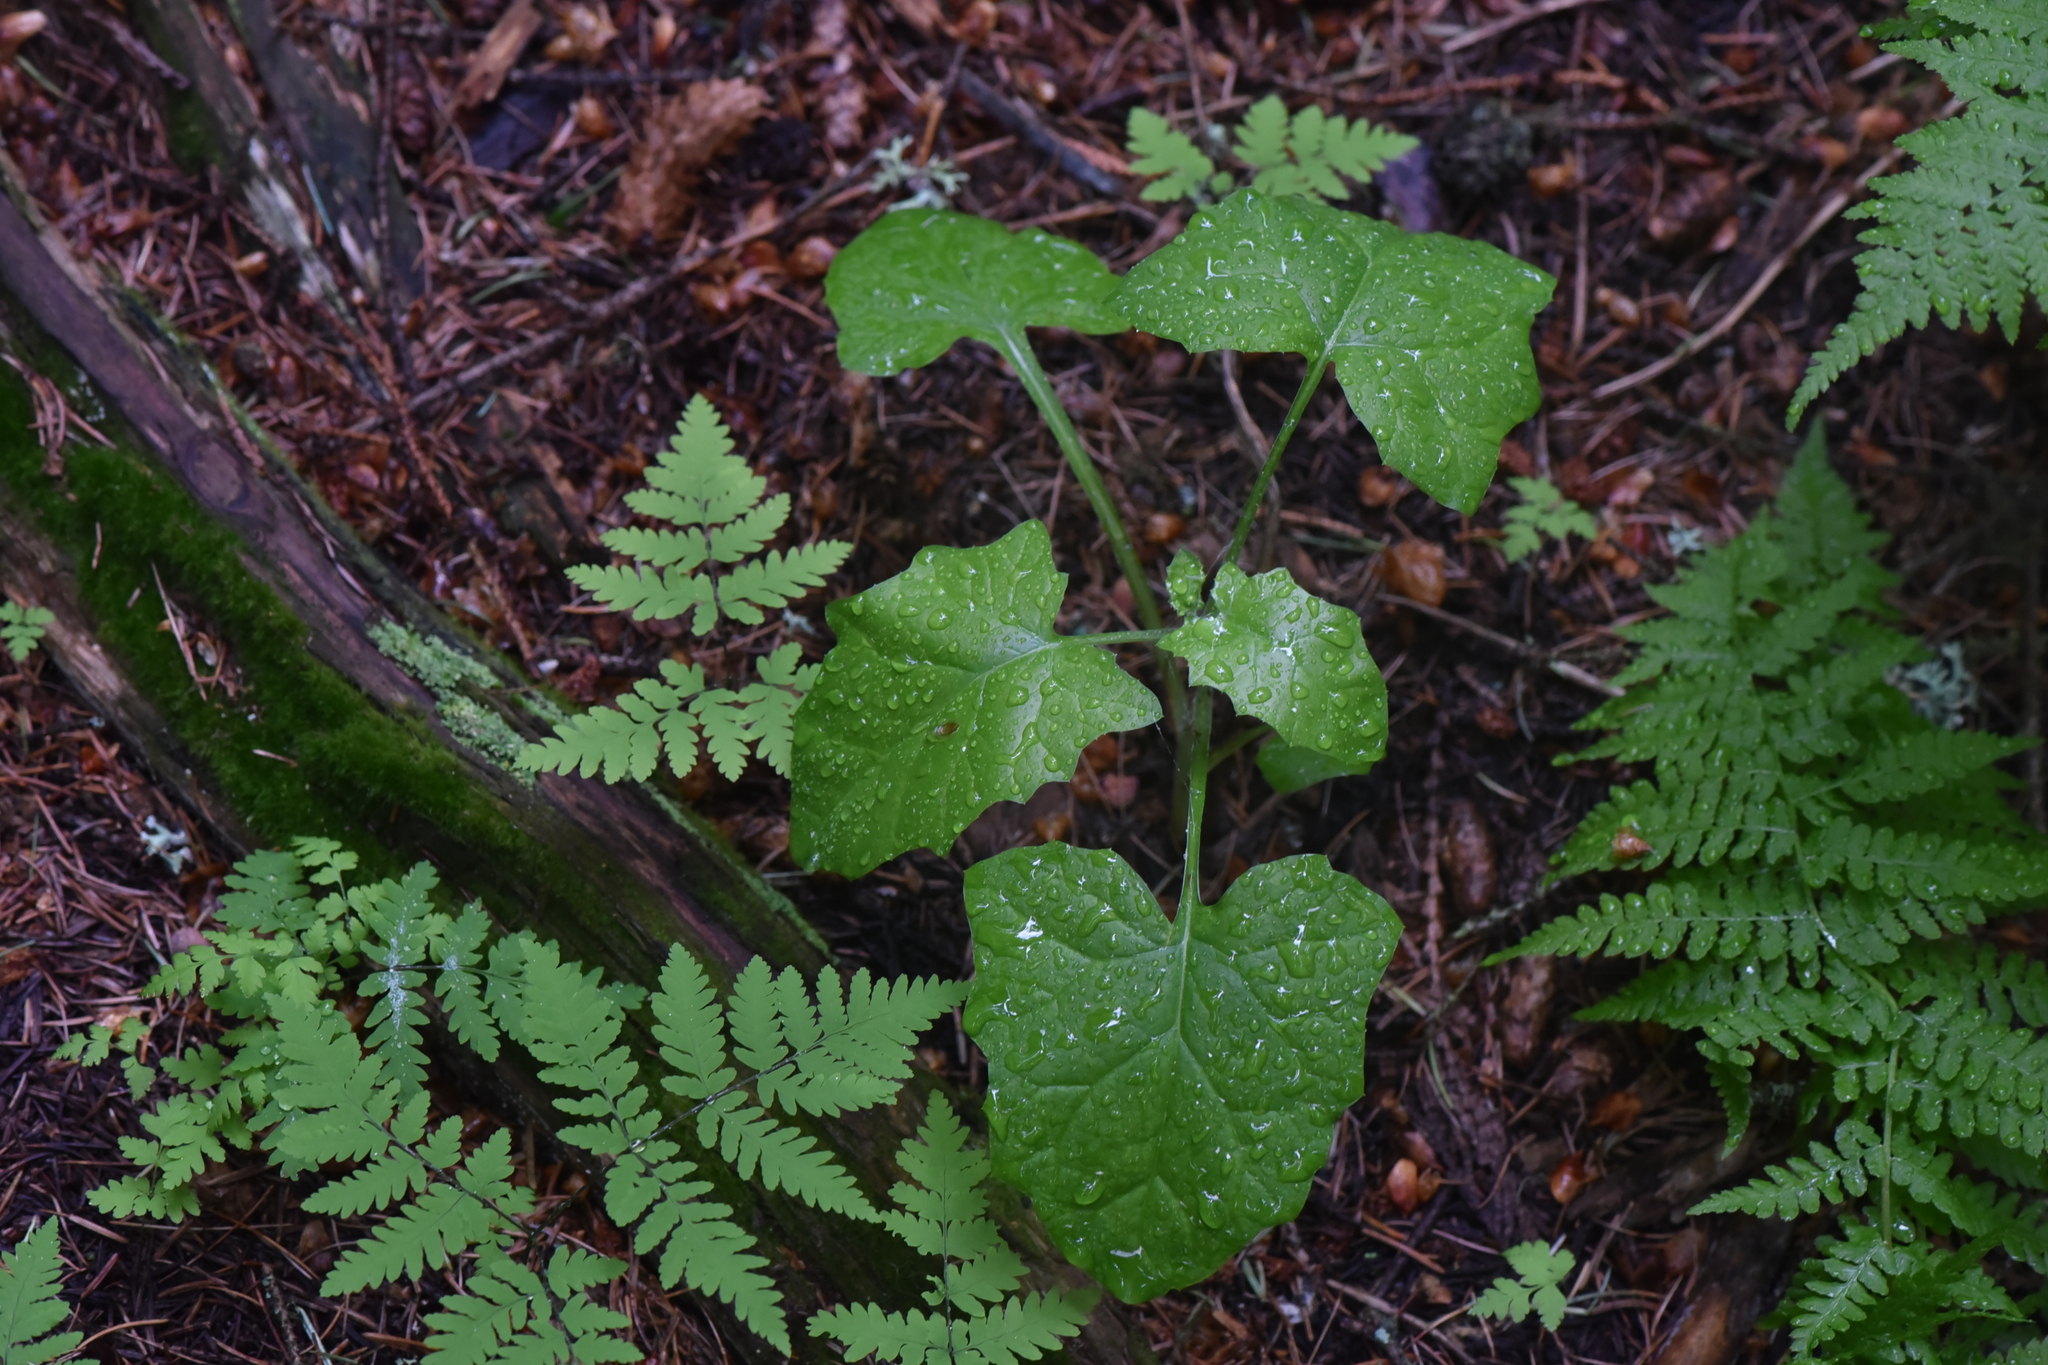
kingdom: Plantae
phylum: Tracheophyta
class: Magnoliopsida
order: Asterales
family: Asteraceae
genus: Adenocaulon
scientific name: Adenocaulon bicolor
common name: Trailplant
